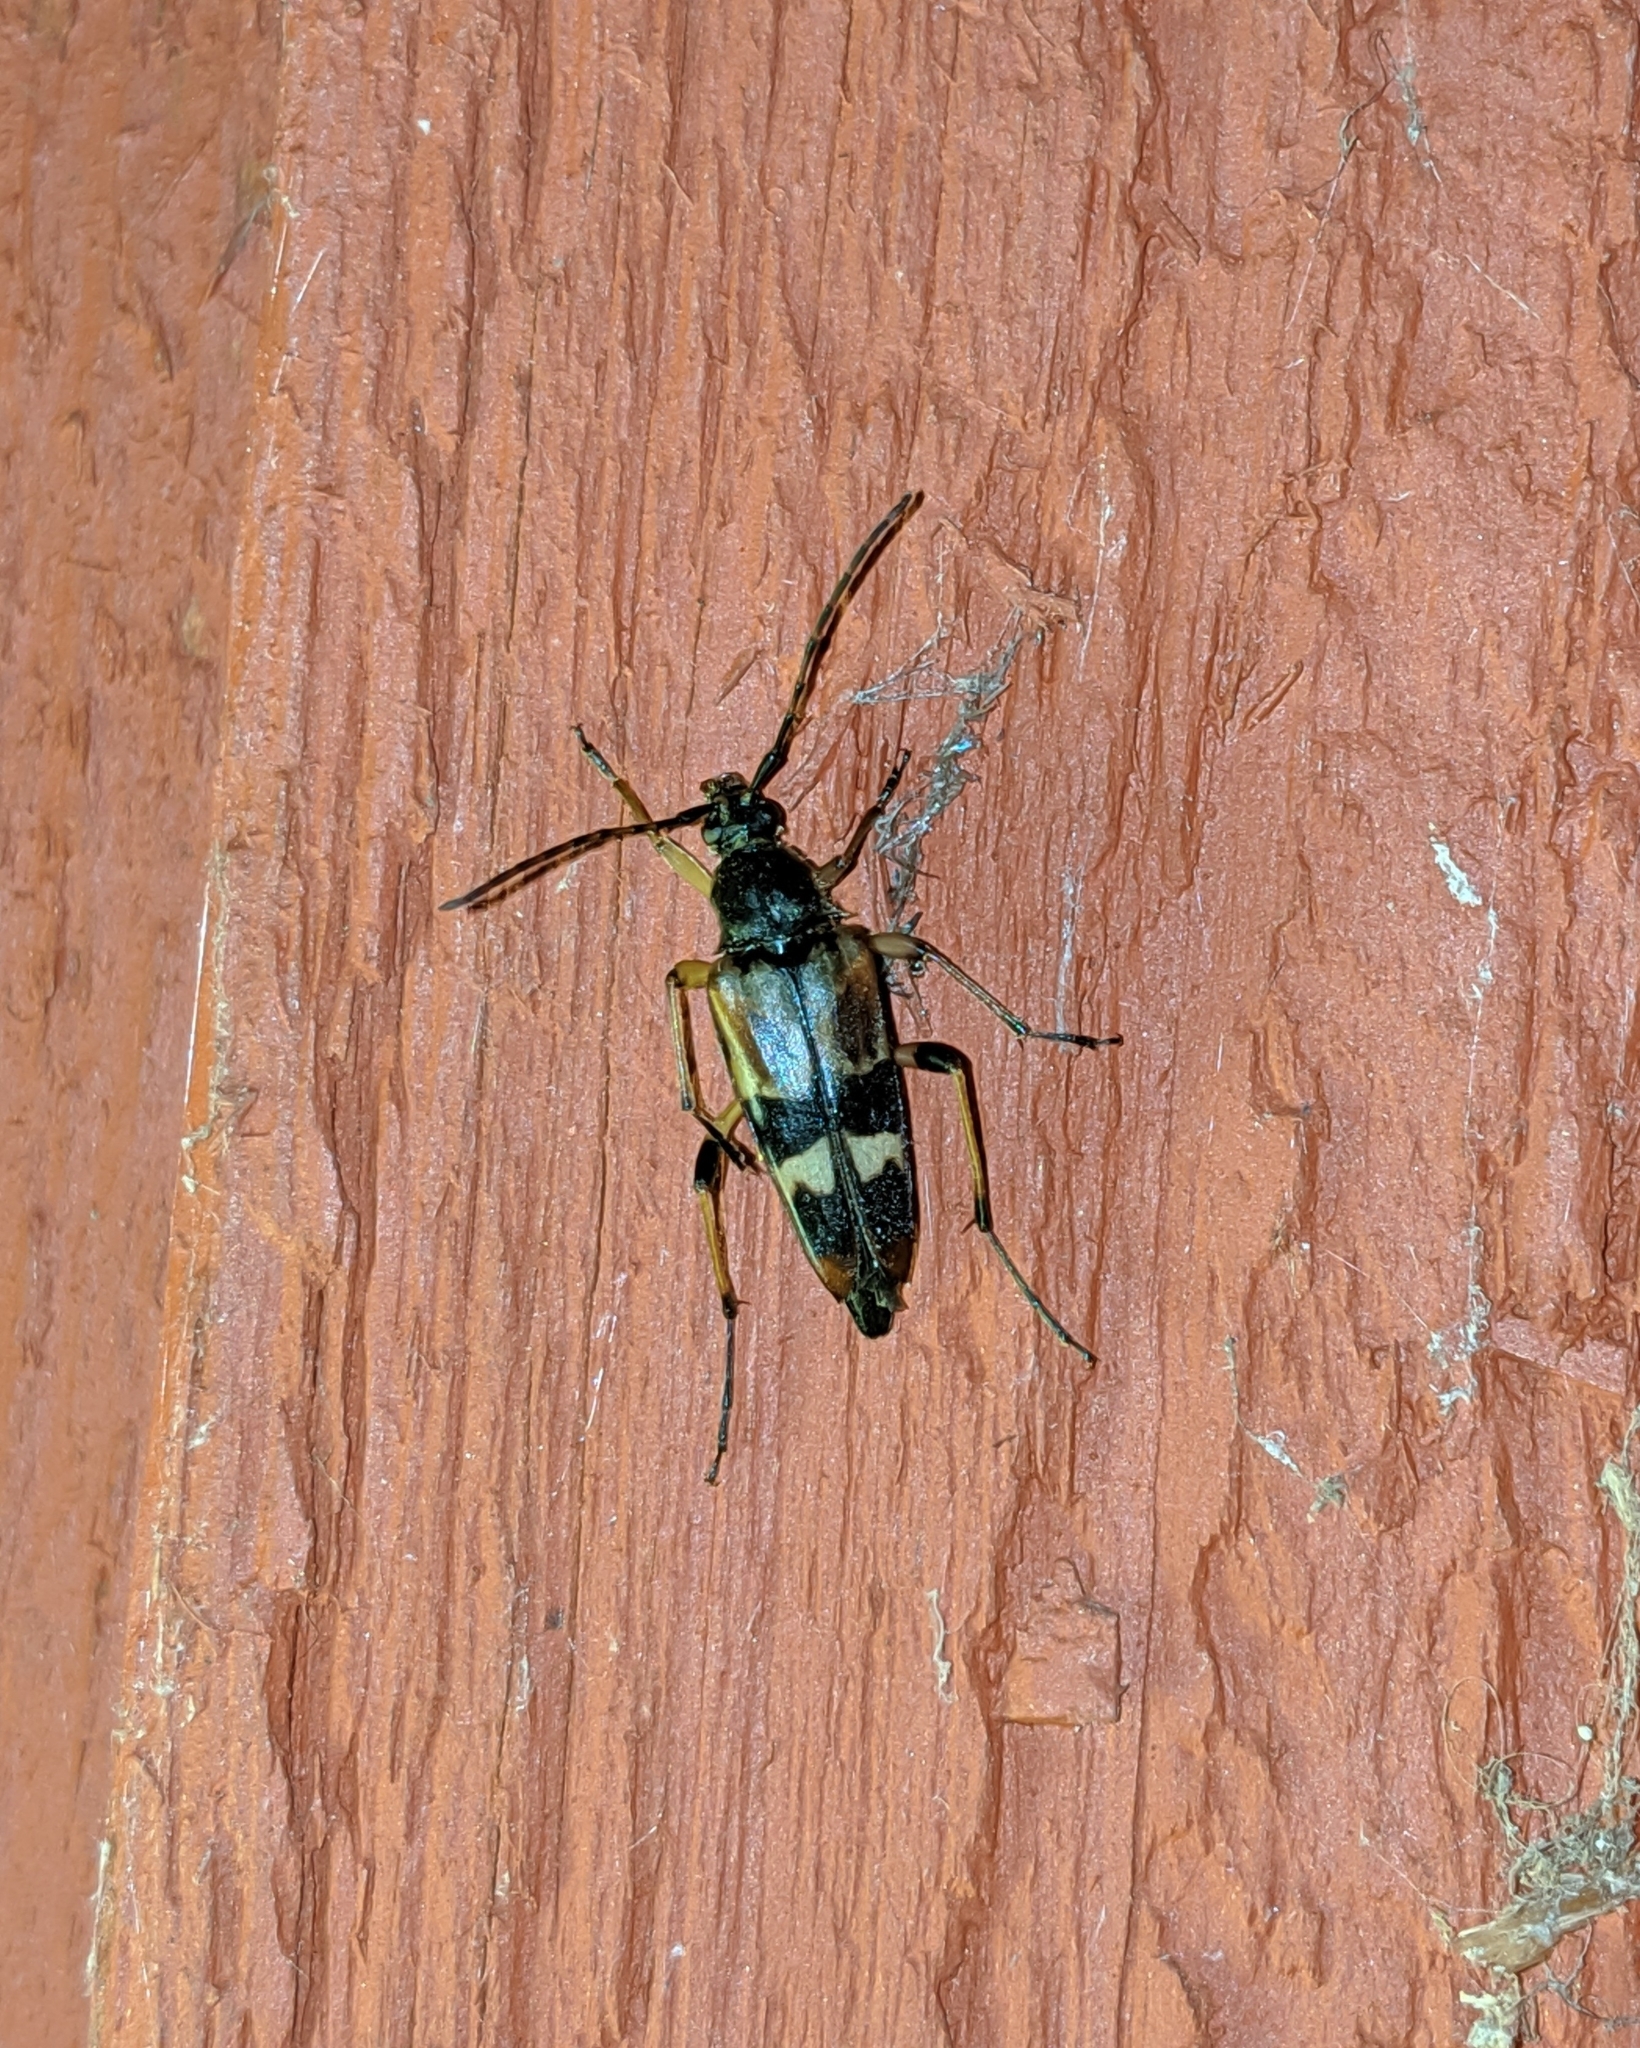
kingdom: Animalia
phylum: Arthropoda
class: Insecta
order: Coleoptera
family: Cerambycidae
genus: Etorofus
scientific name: Etorofus obliteratus
